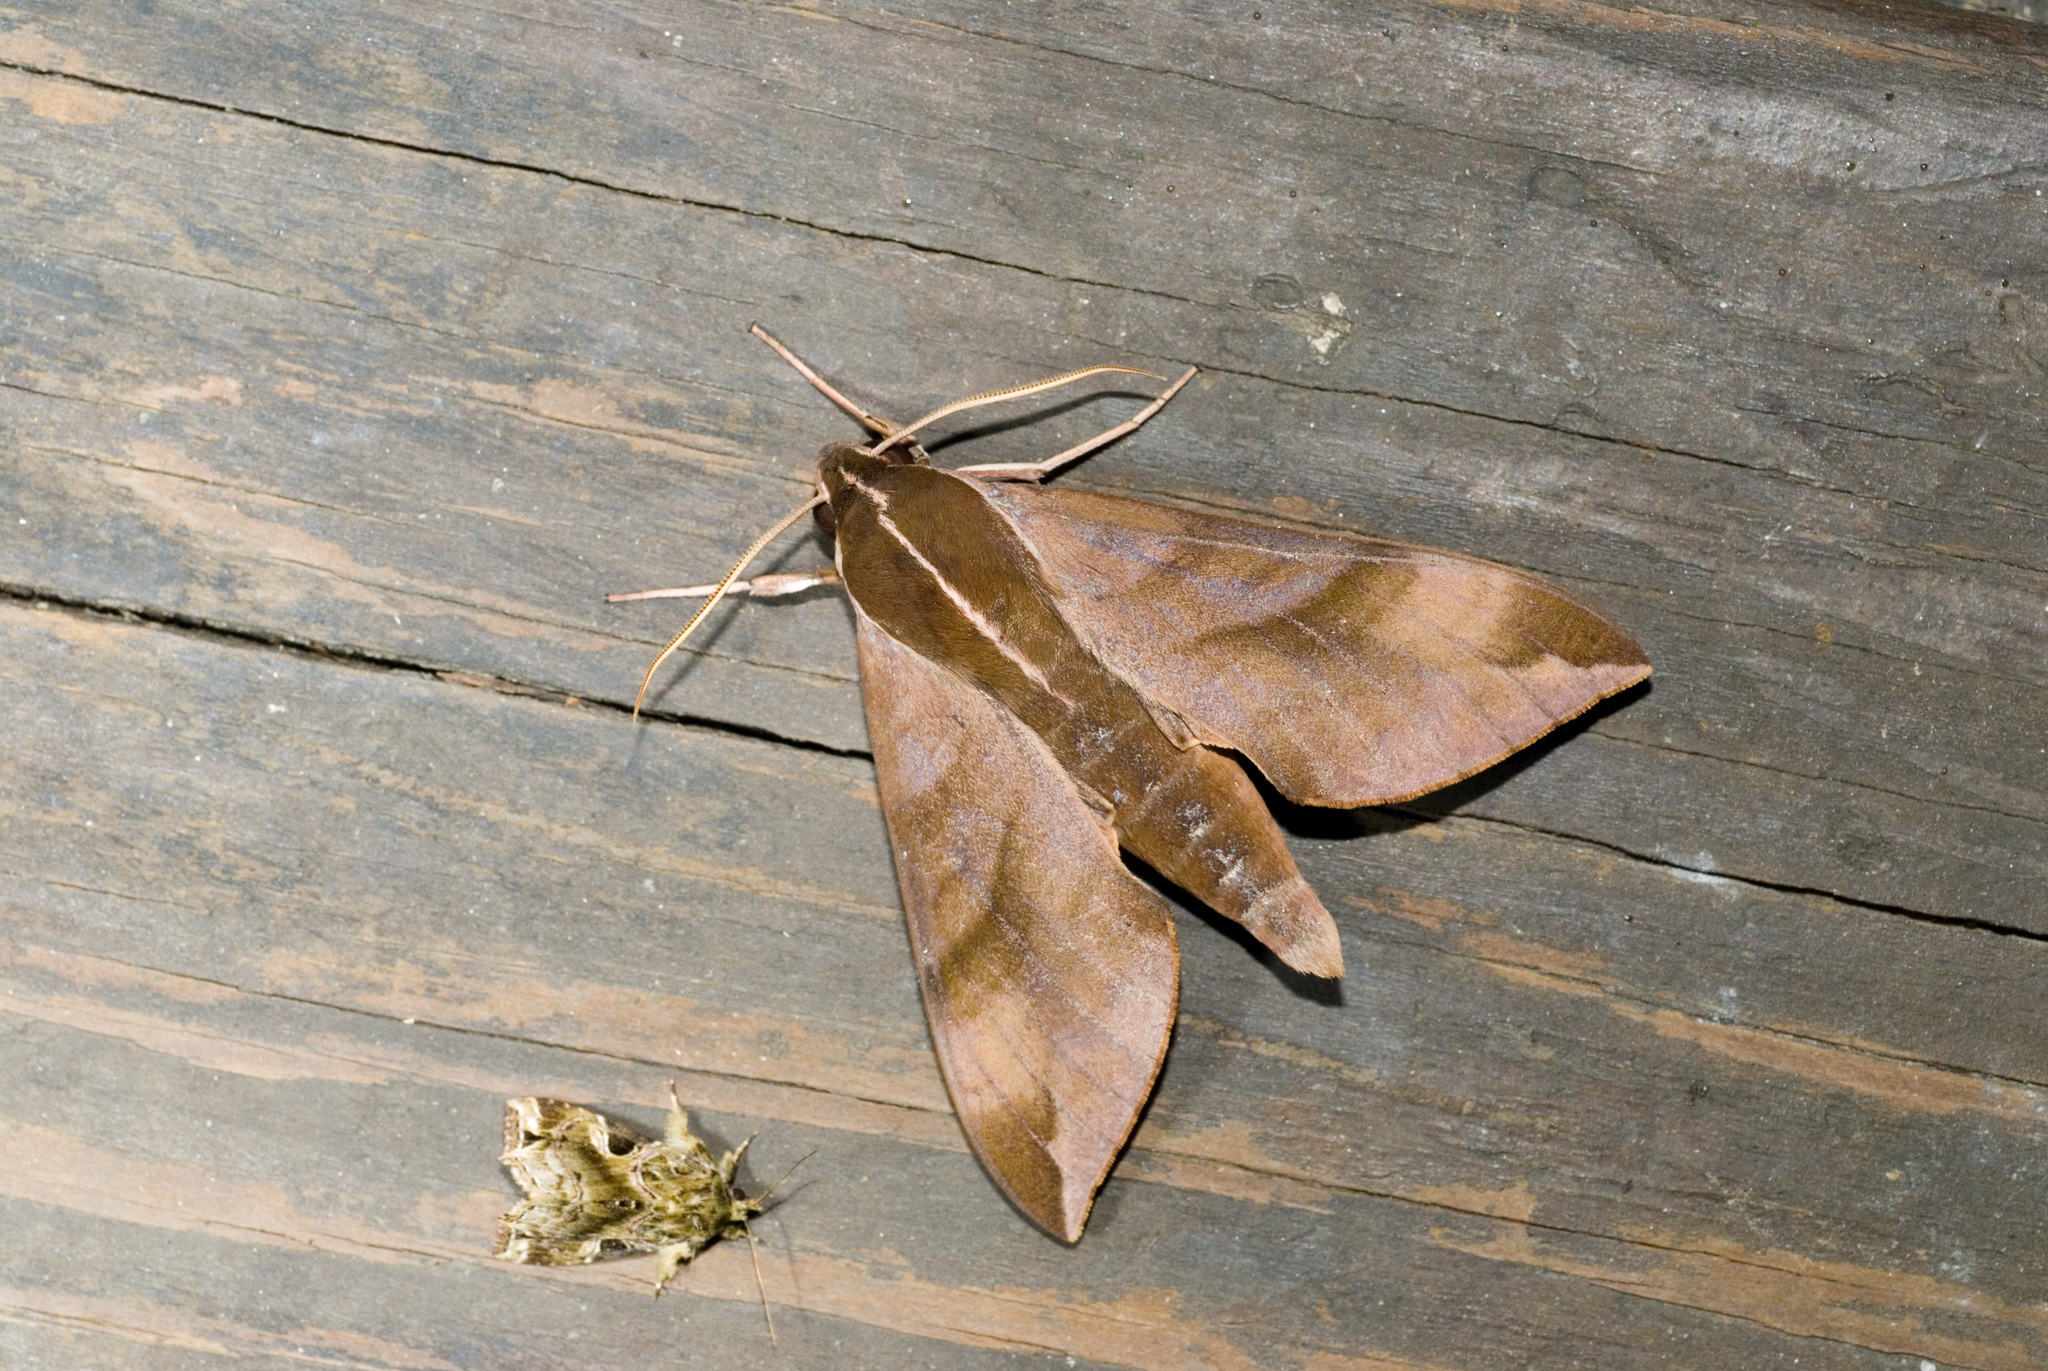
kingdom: Animalia
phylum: Arthropoda
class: Insecta
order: Lepidoptera
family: Sphingidae
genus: Ampelophaga
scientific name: Ampelophaga rubiginosa
